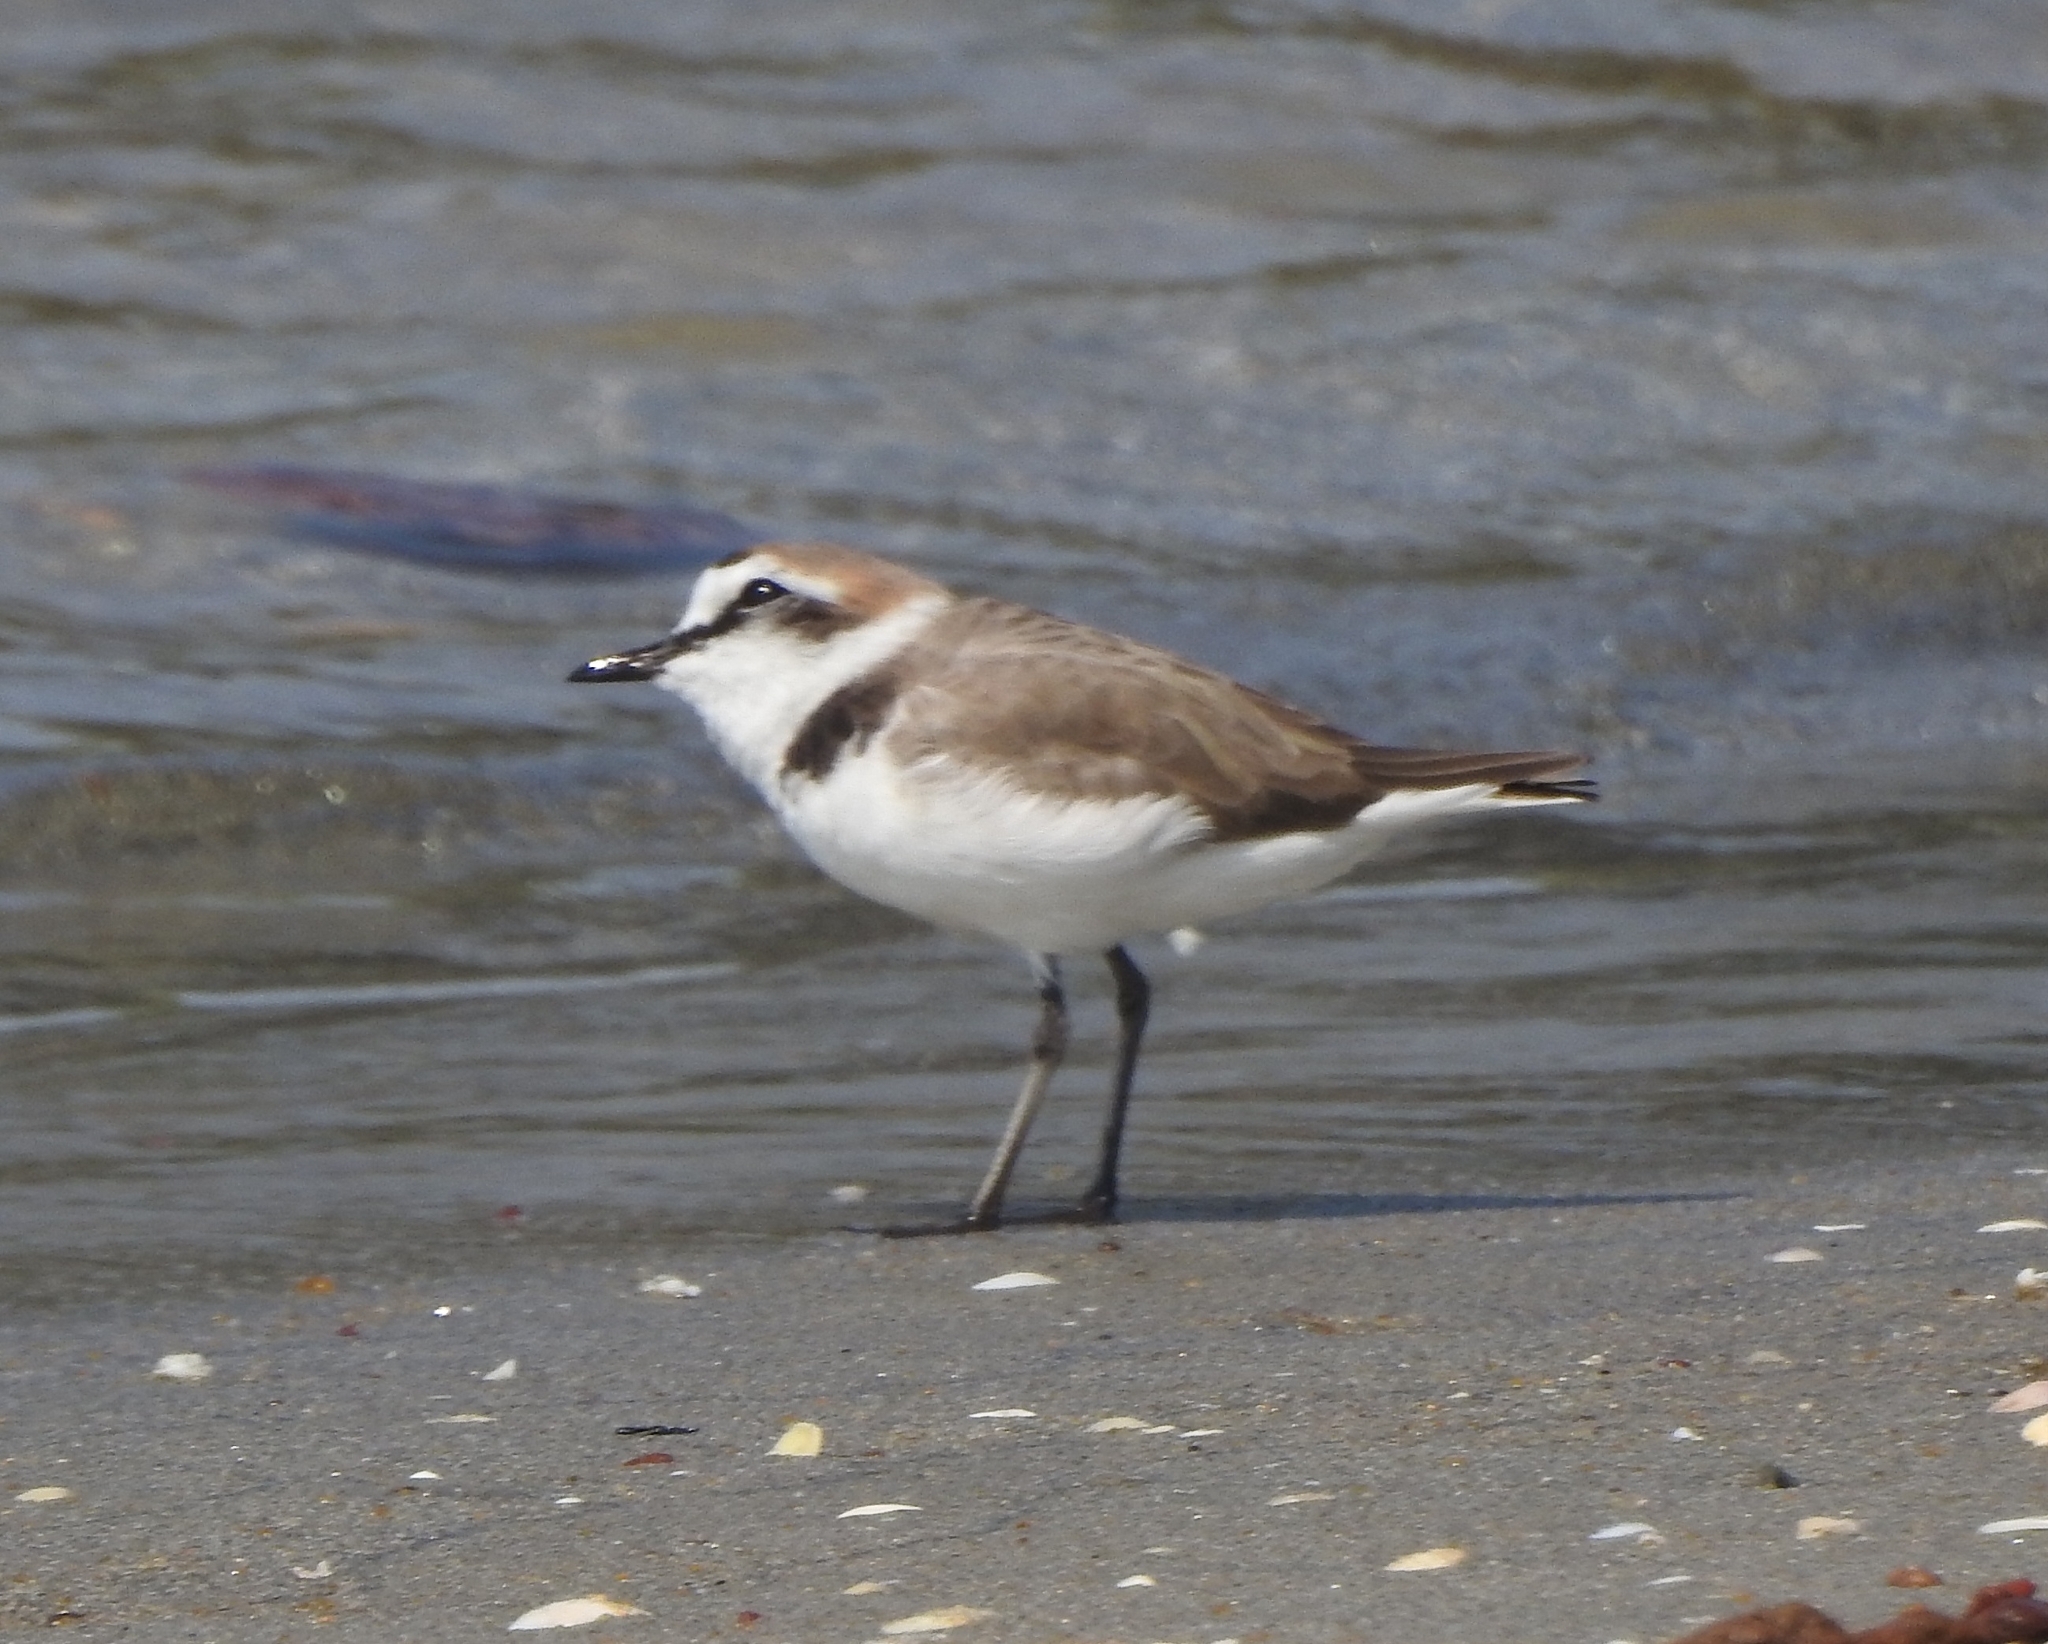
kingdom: Animalia
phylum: Chordata
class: Aves
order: Charadriiformes
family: Charadriidae
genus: Charadrius
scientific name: Charadrius alexandrinus
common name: Kentish plover
